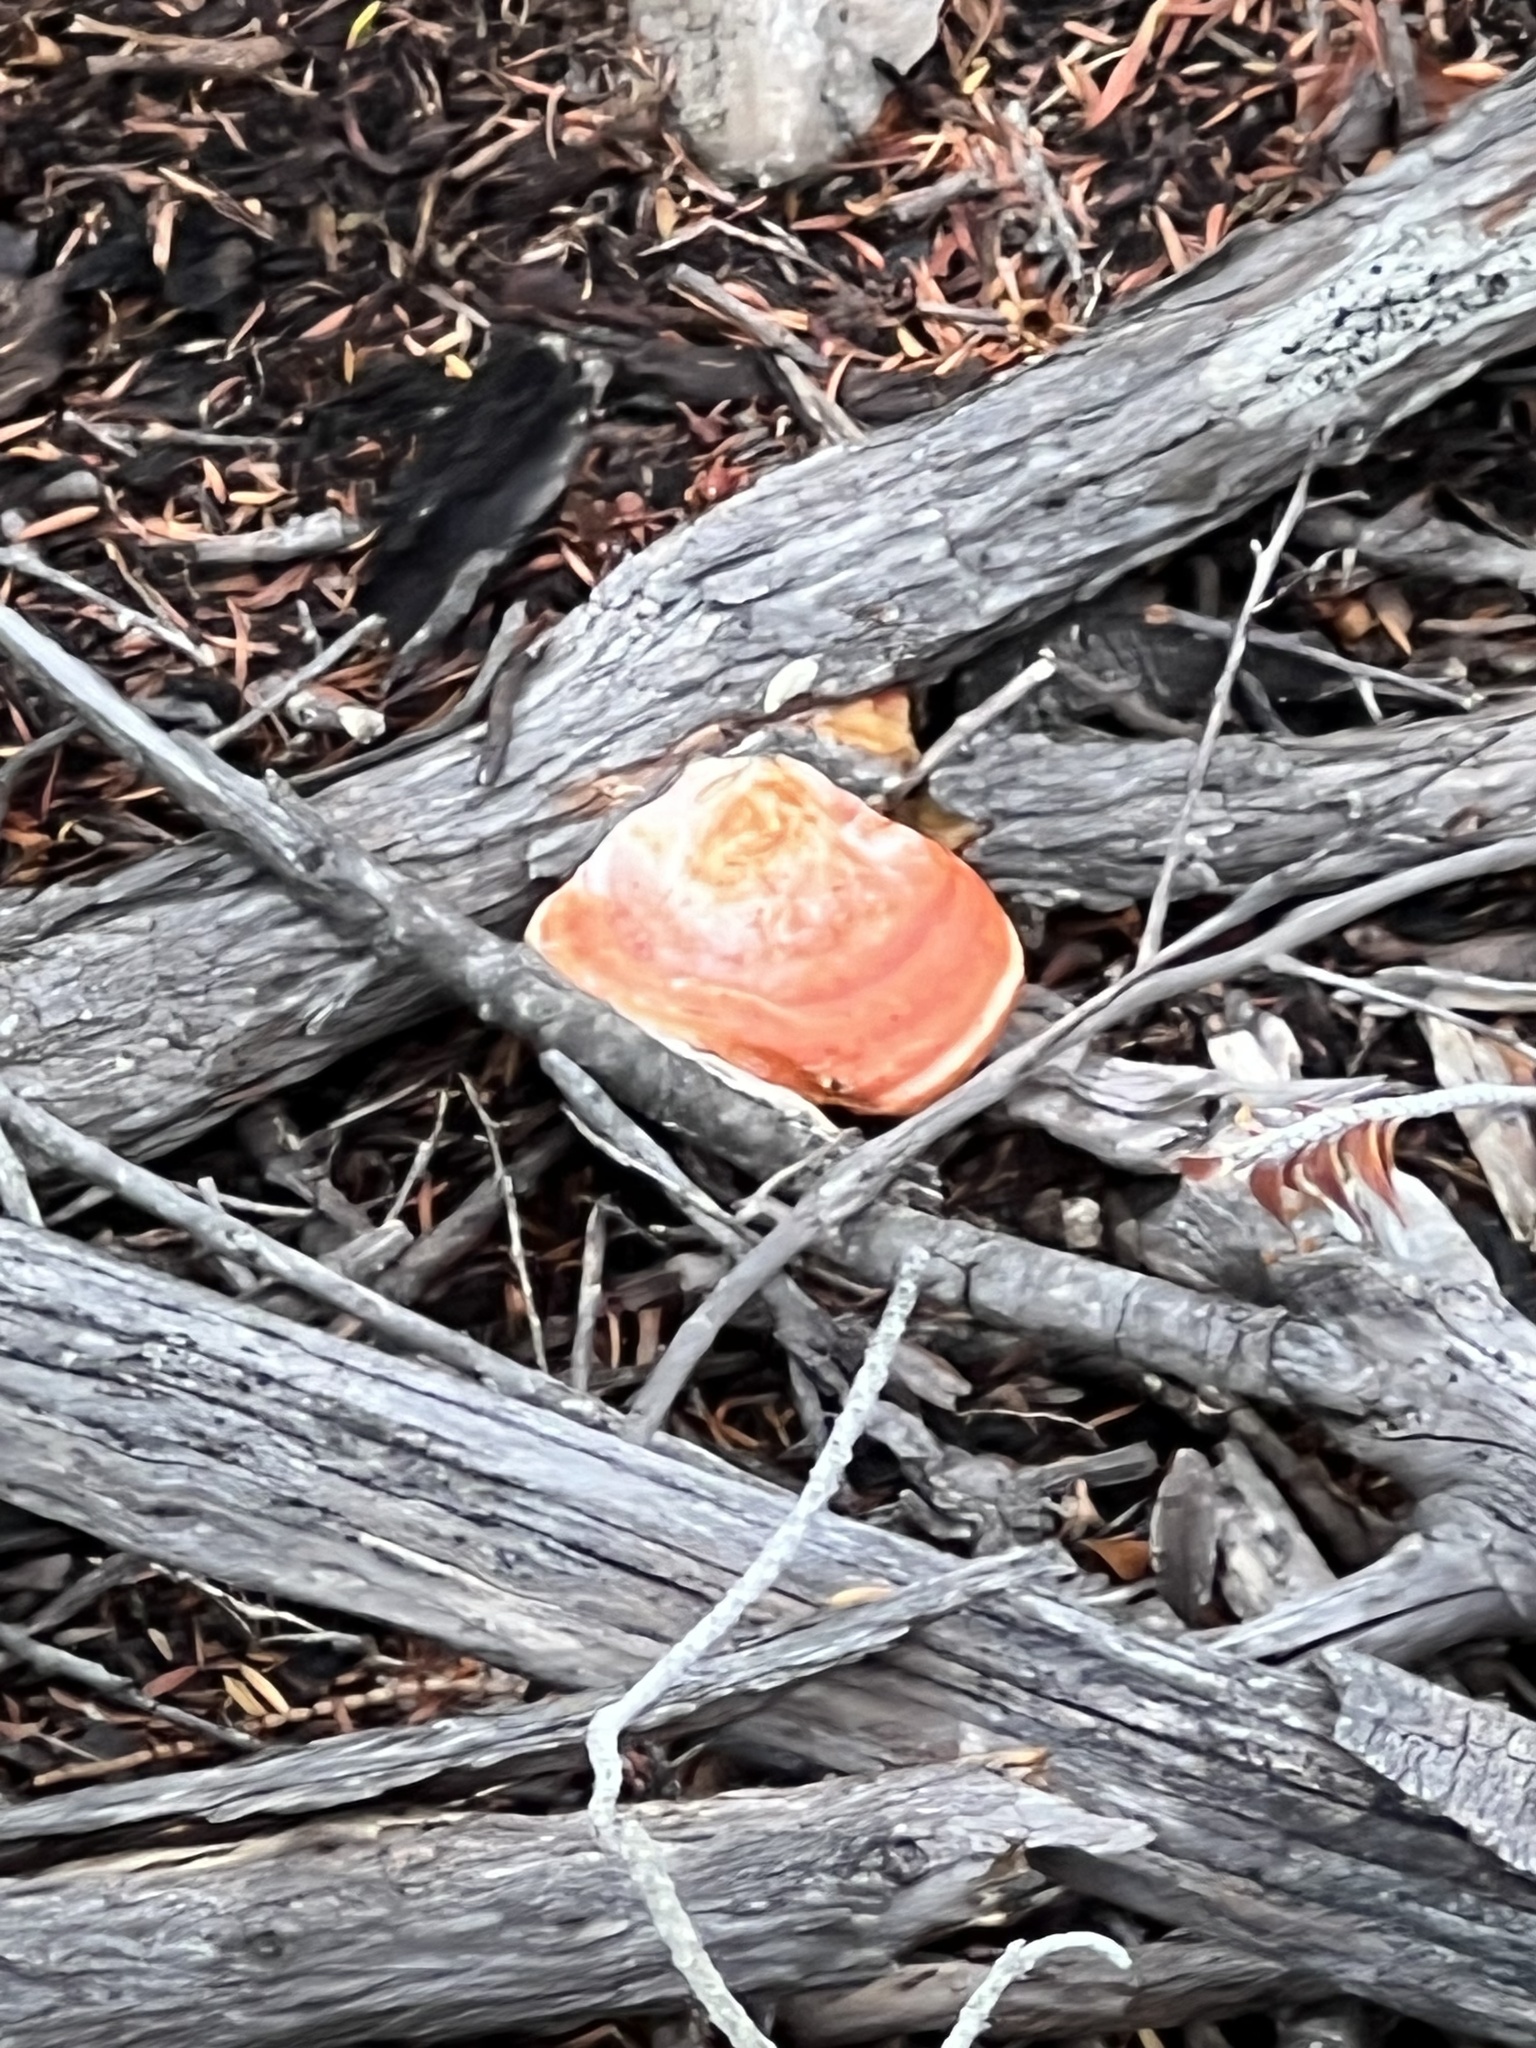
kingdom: Fungi
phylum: Basidiomycota
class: Agaricomycetes
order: Polyporales
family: Polyporaceae
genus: Trametes
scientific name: Trametes coccinea
